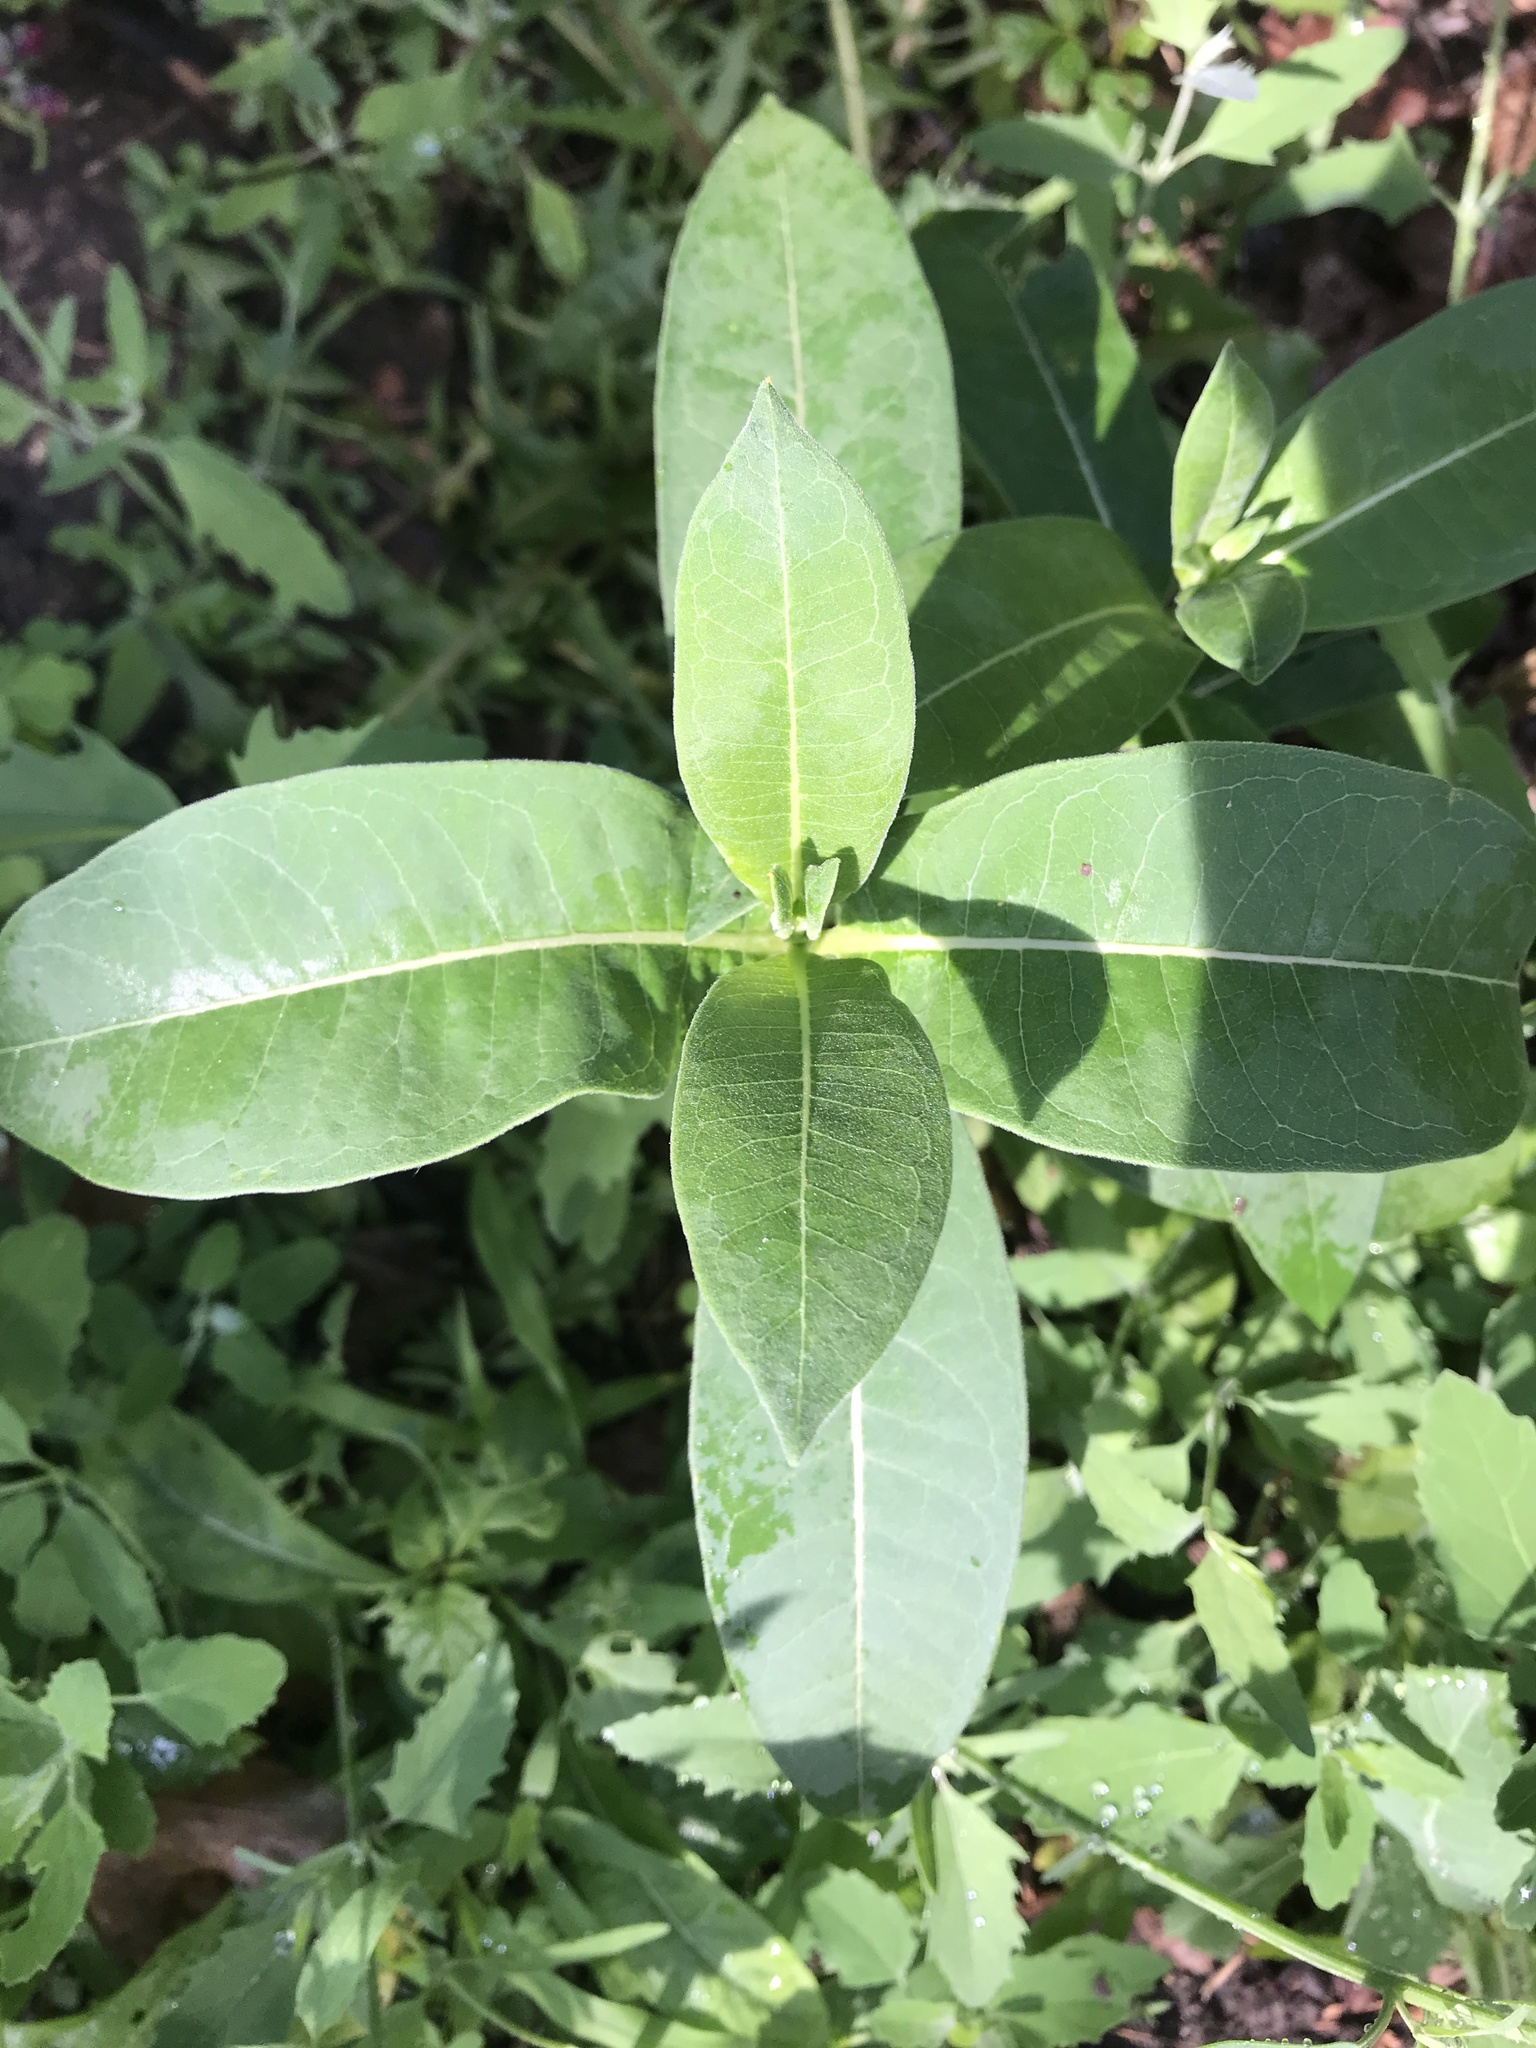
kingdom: Plantae
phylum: Tracheophyta
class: Magnoliopsida
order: Gentianales
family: Apocynaceae
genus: Asclepias
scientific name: Asclepias syriaca
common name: Common milkweed
